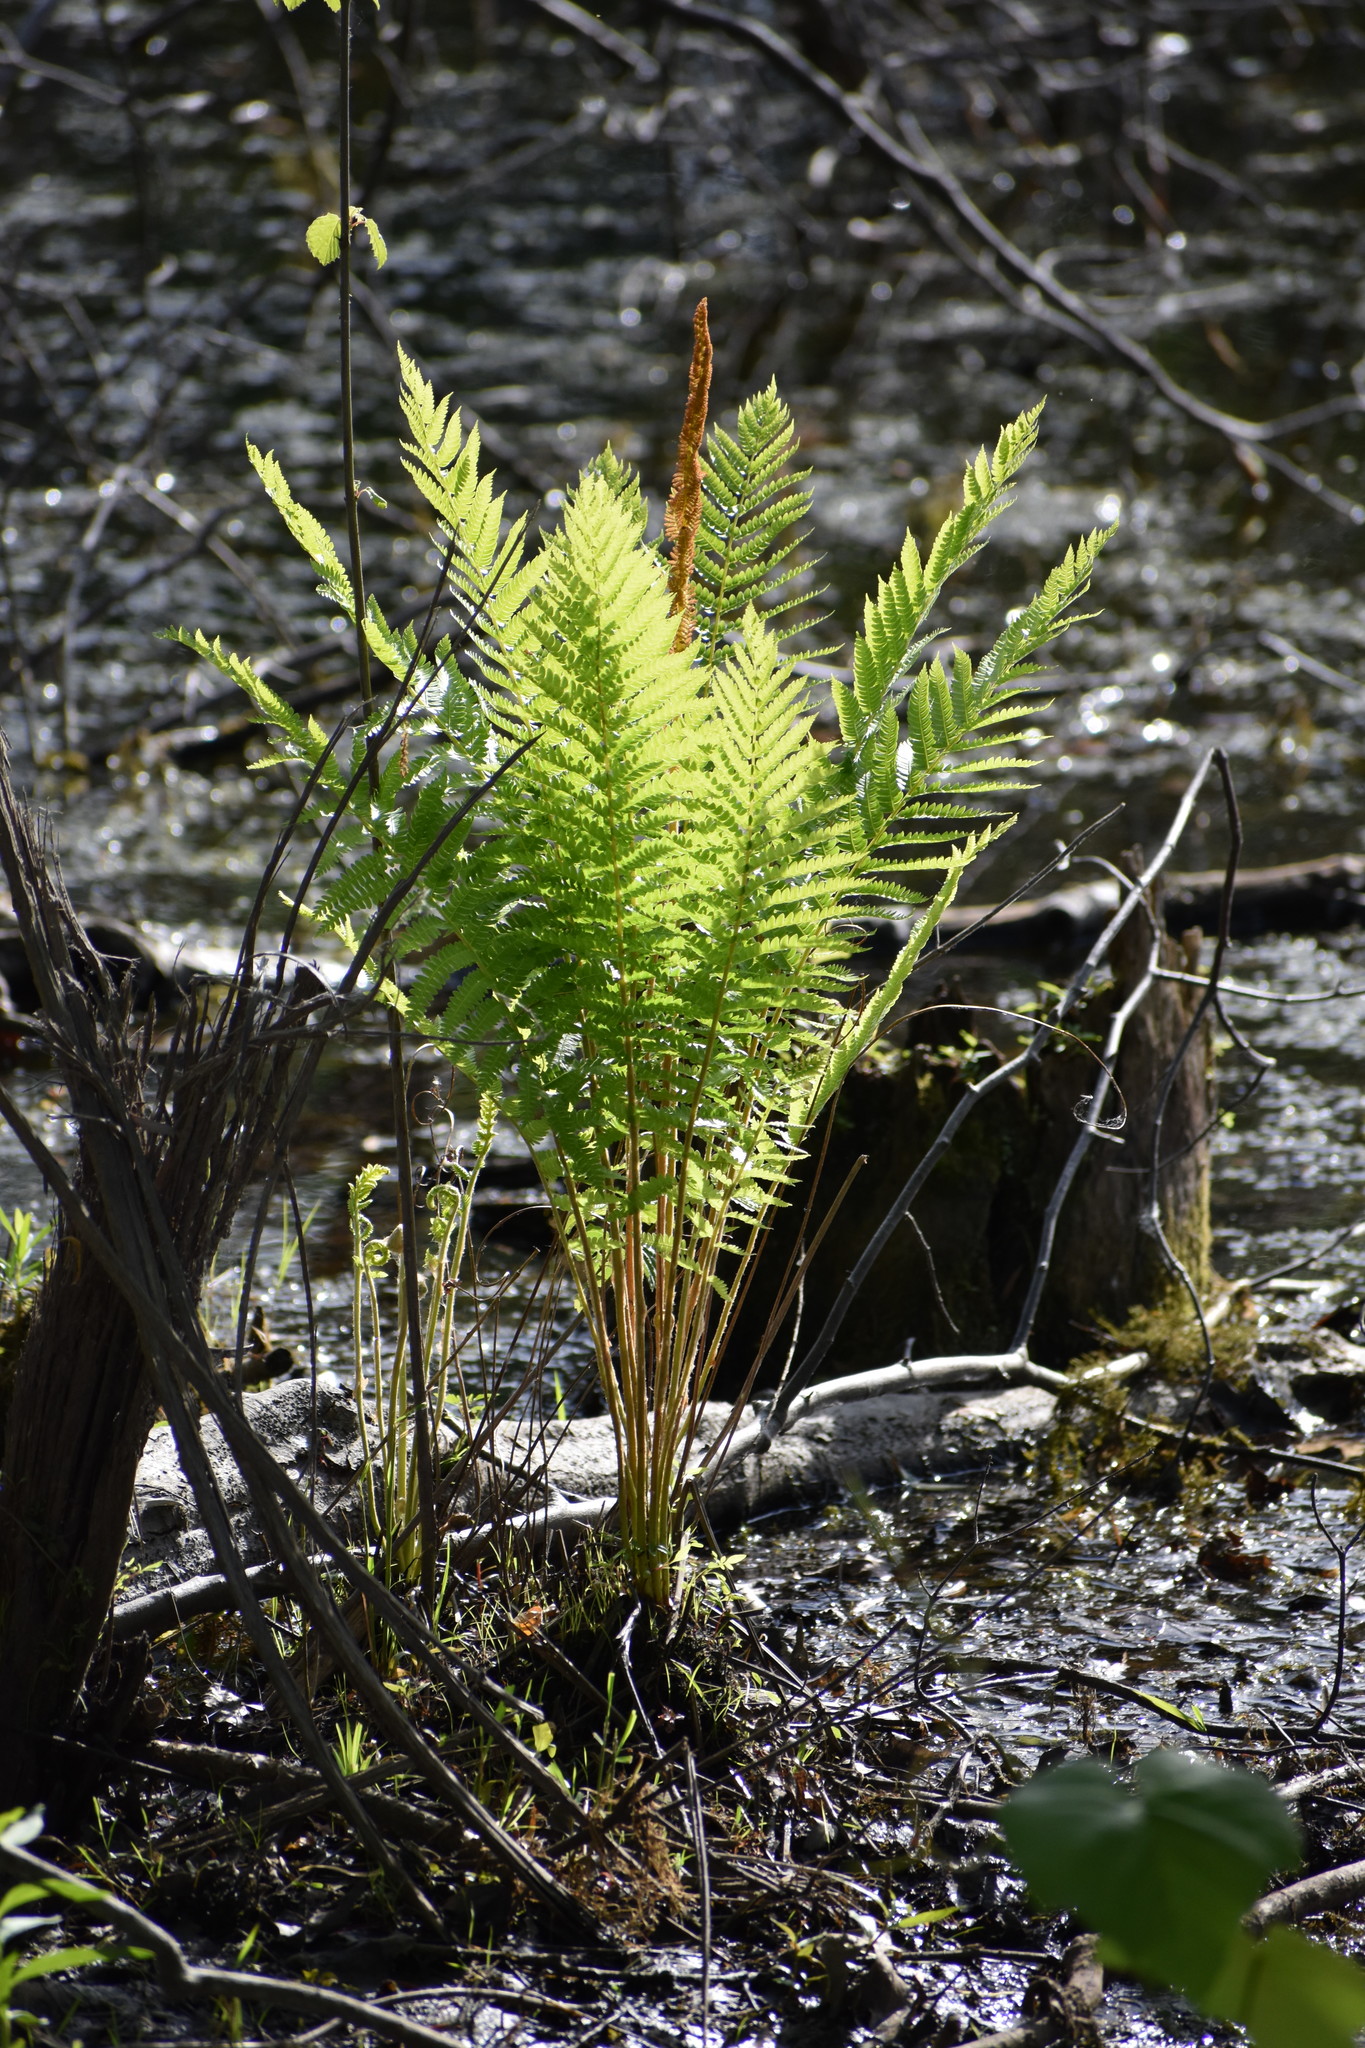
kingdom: Plantae
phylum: Tracheophyta
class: Polypodiopsida
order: Osmundales
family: Osmundaceae
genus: Osmundastrum
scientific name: Osmundastrum cinnamomeum
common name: Cinnamon fern
